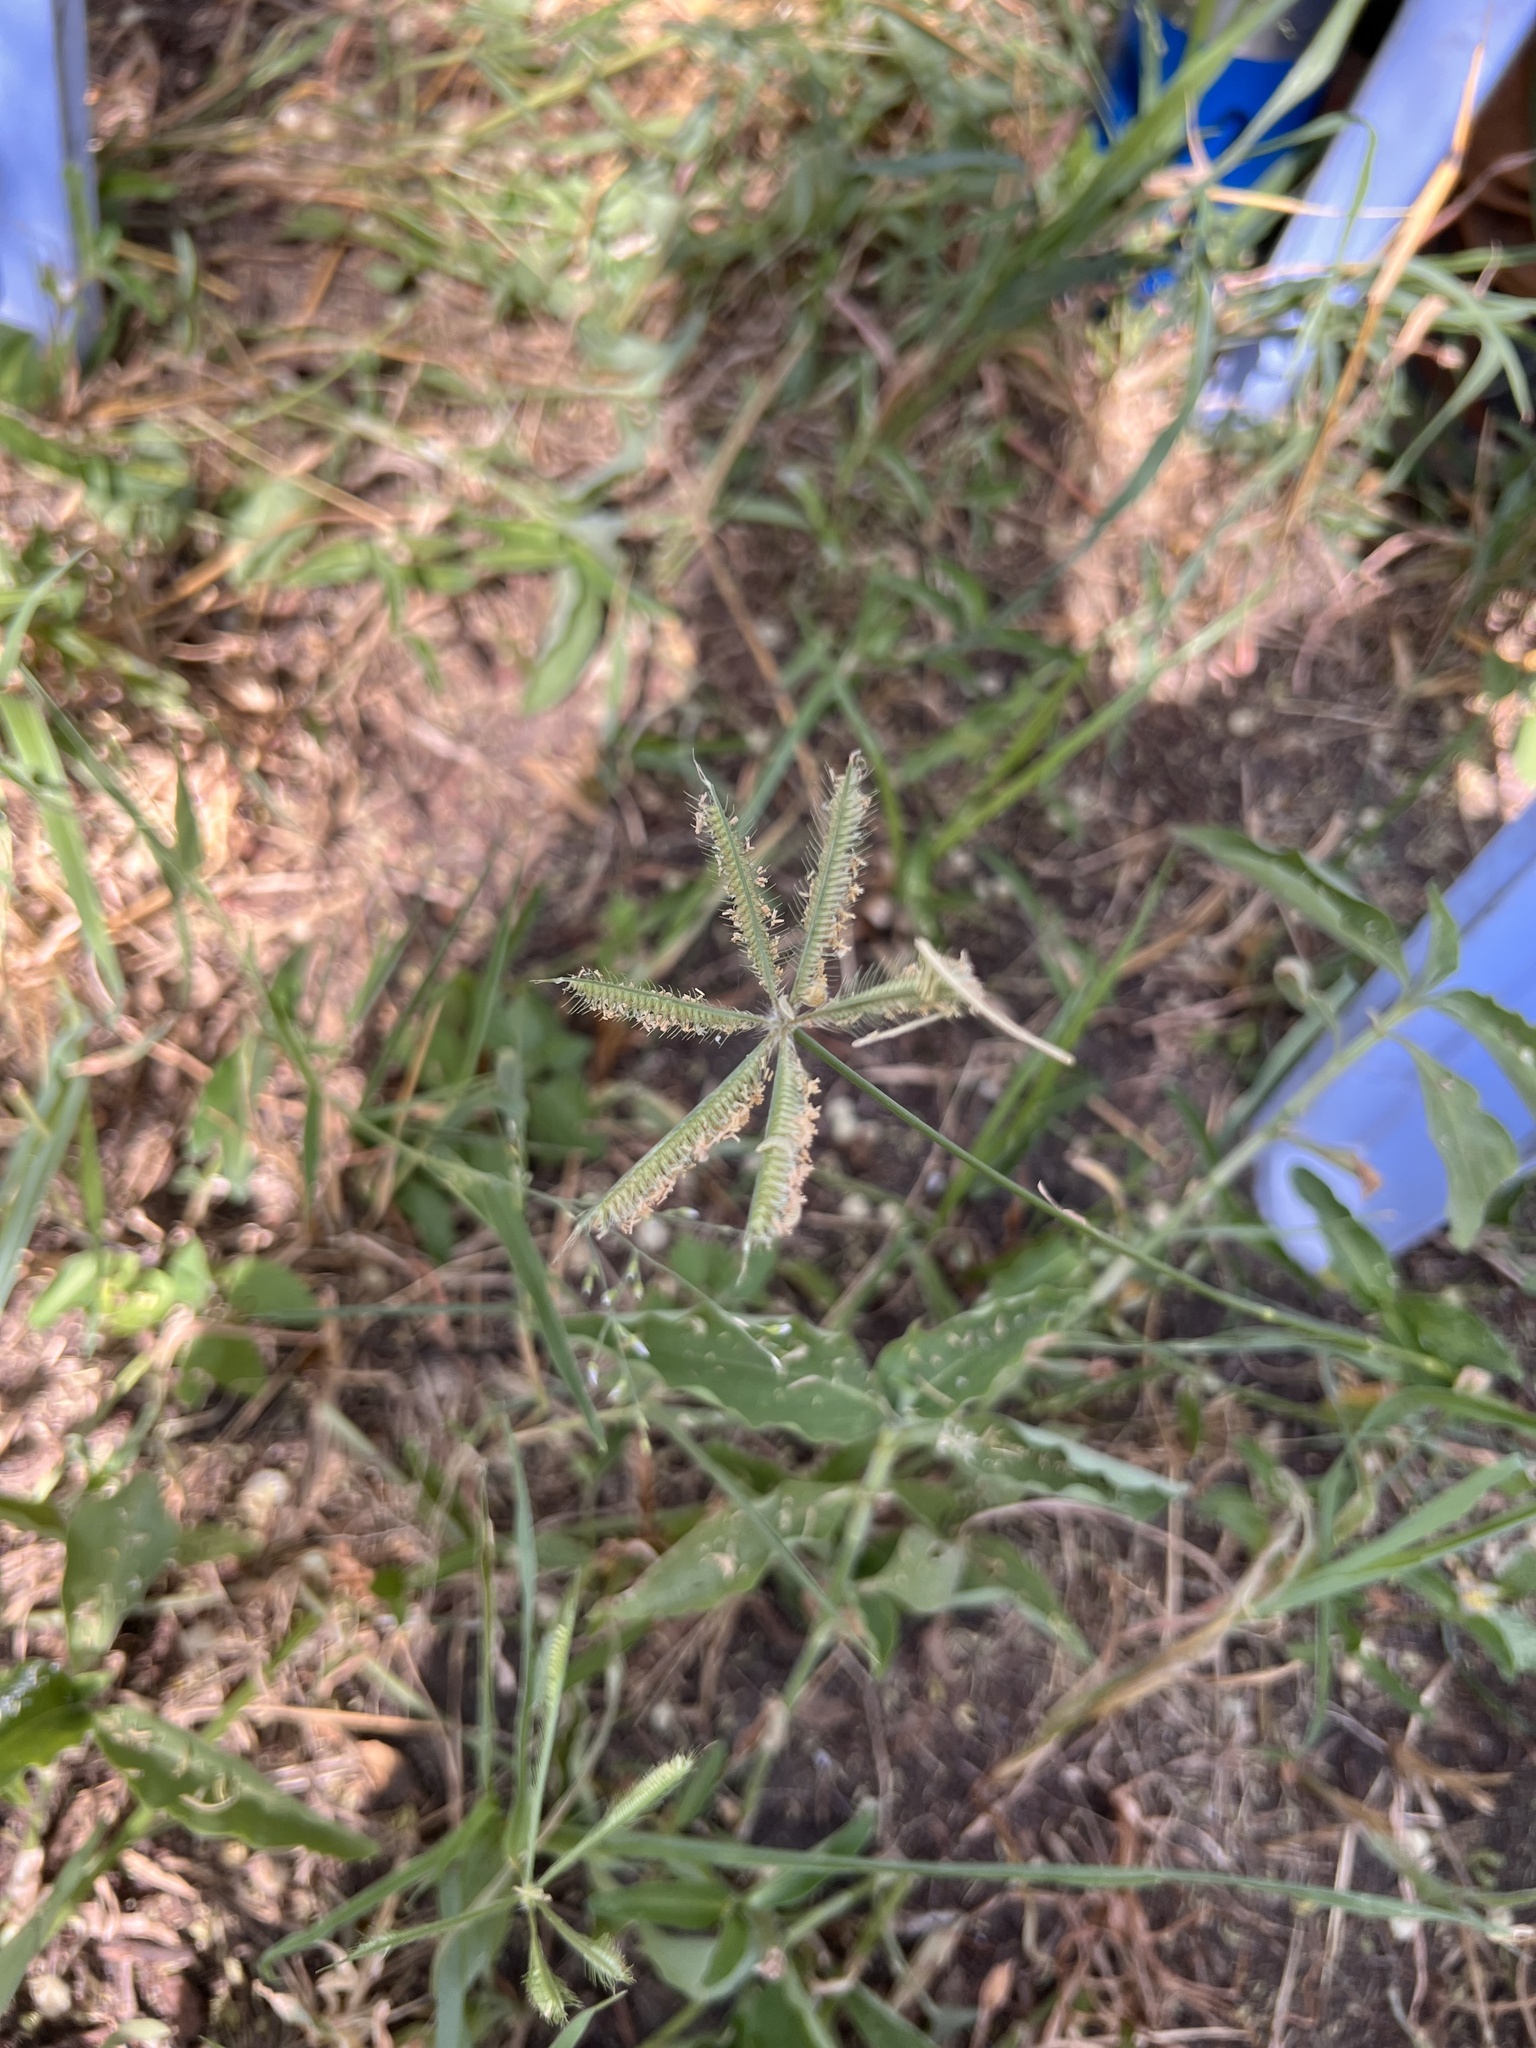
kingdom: Plantae
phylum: Tracheophyta
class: Liliopsida
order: Poales
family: Poaceae
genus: Dactyloctenium
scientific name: Dactyloctenium aegyptium
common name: Egyptian grass
